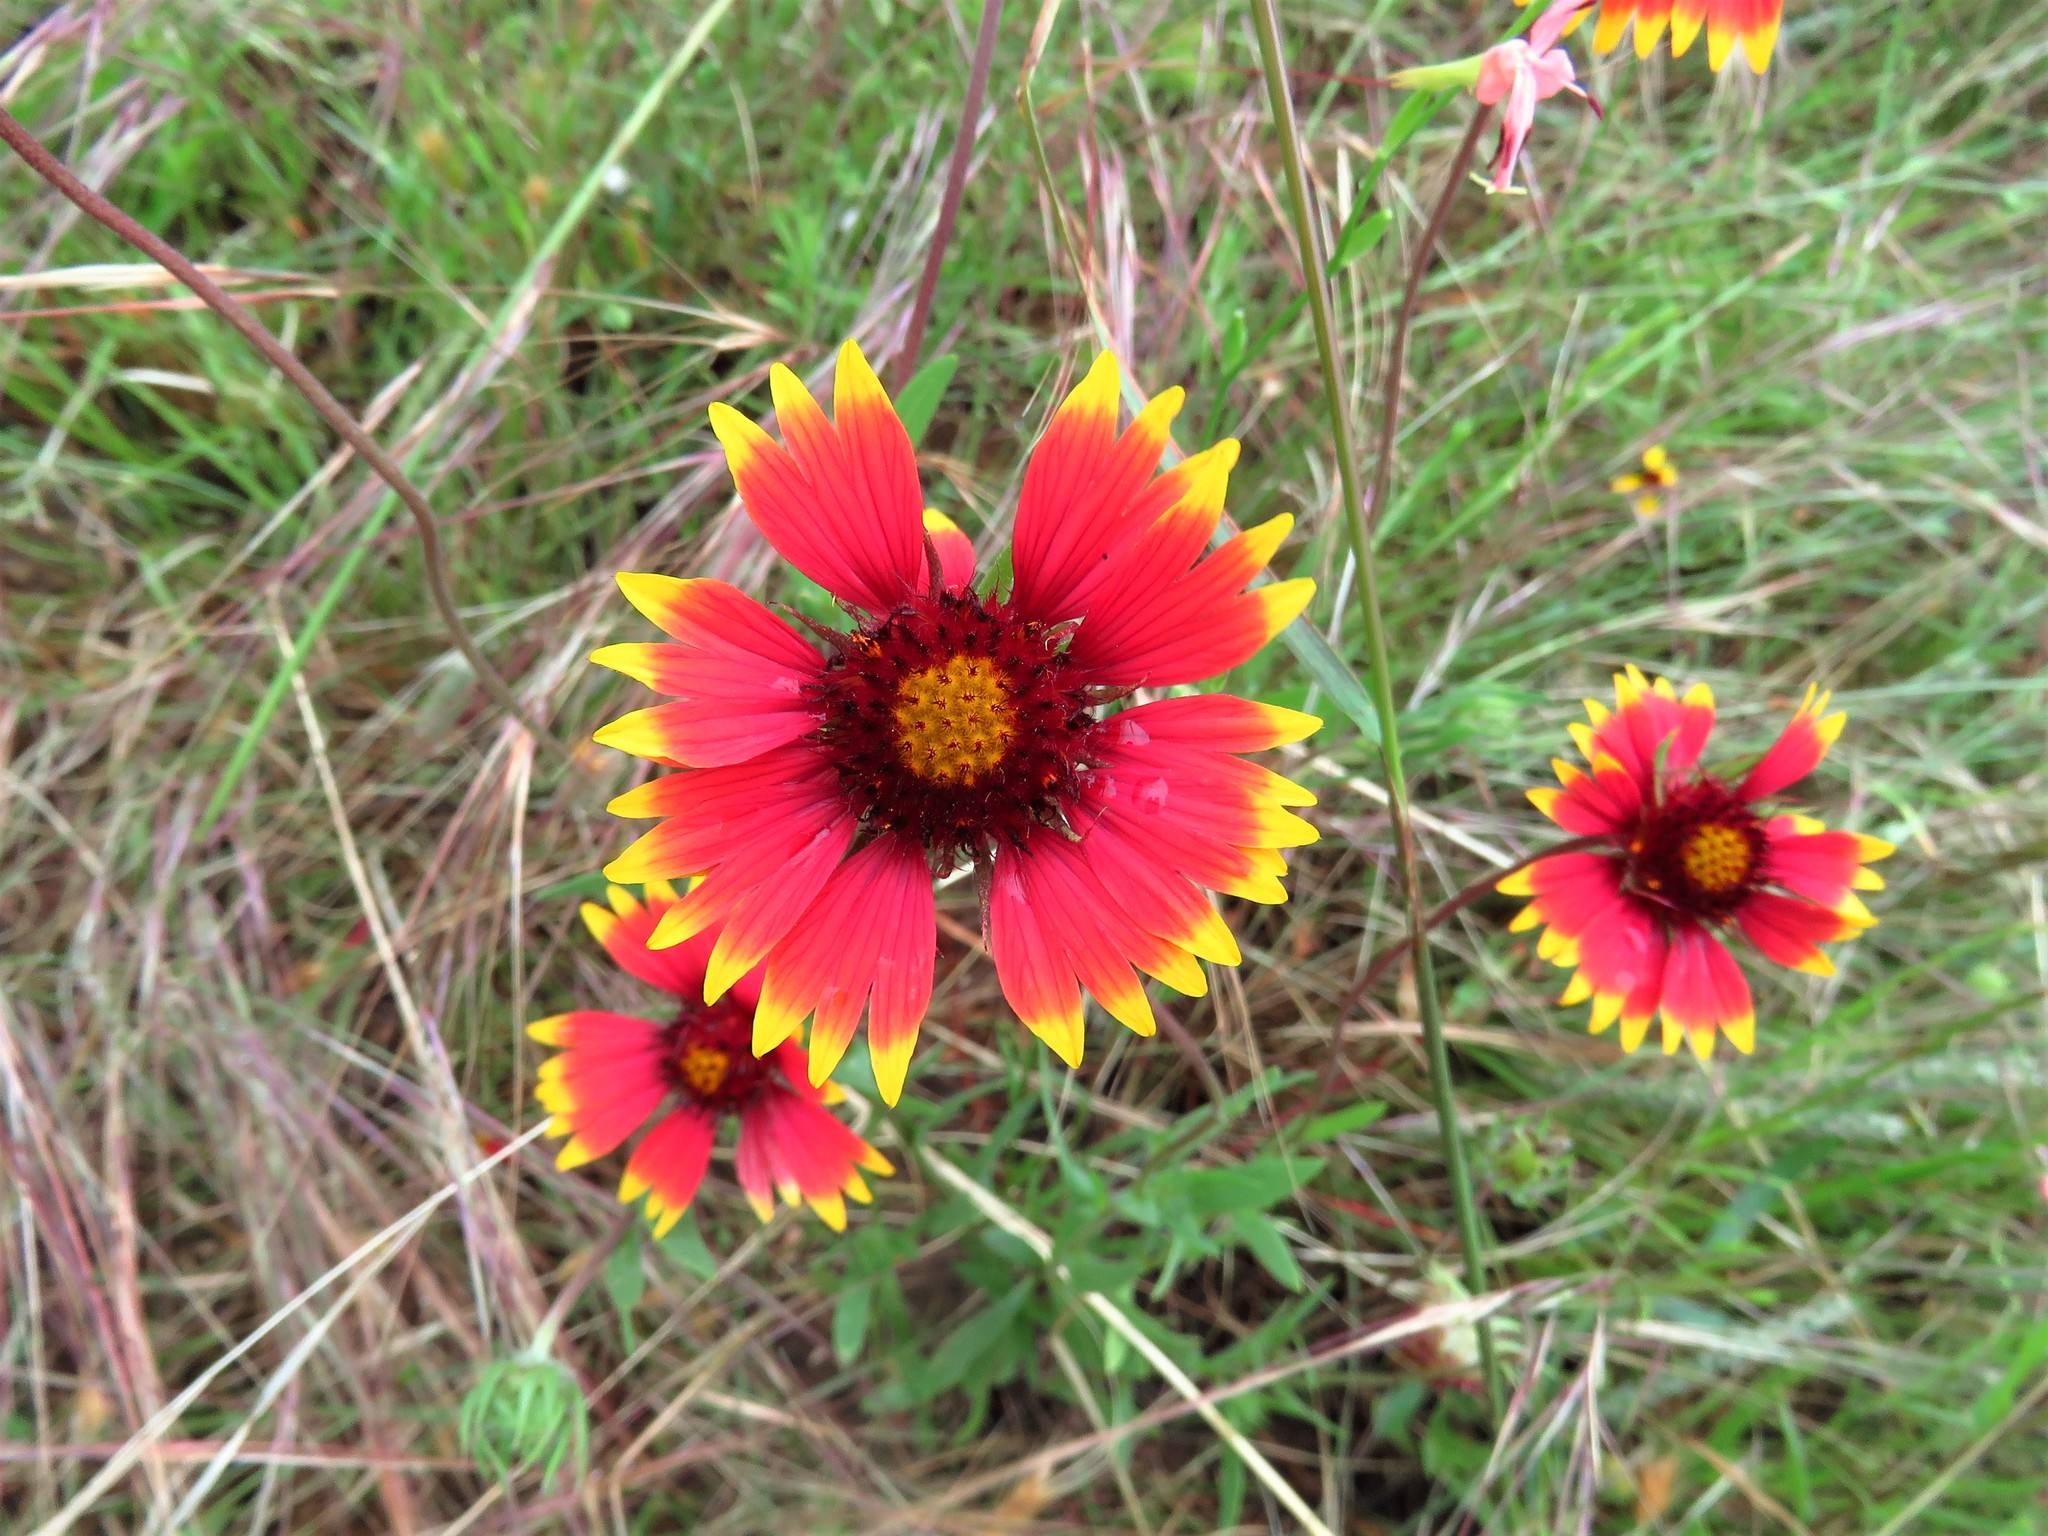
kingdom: Plantae
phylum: Tracheophyta
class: Magnoliopsida
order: Asterales
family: Asteraceae
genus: Gaillardia
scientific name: Gaillardia pulchella
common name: Firewheel
